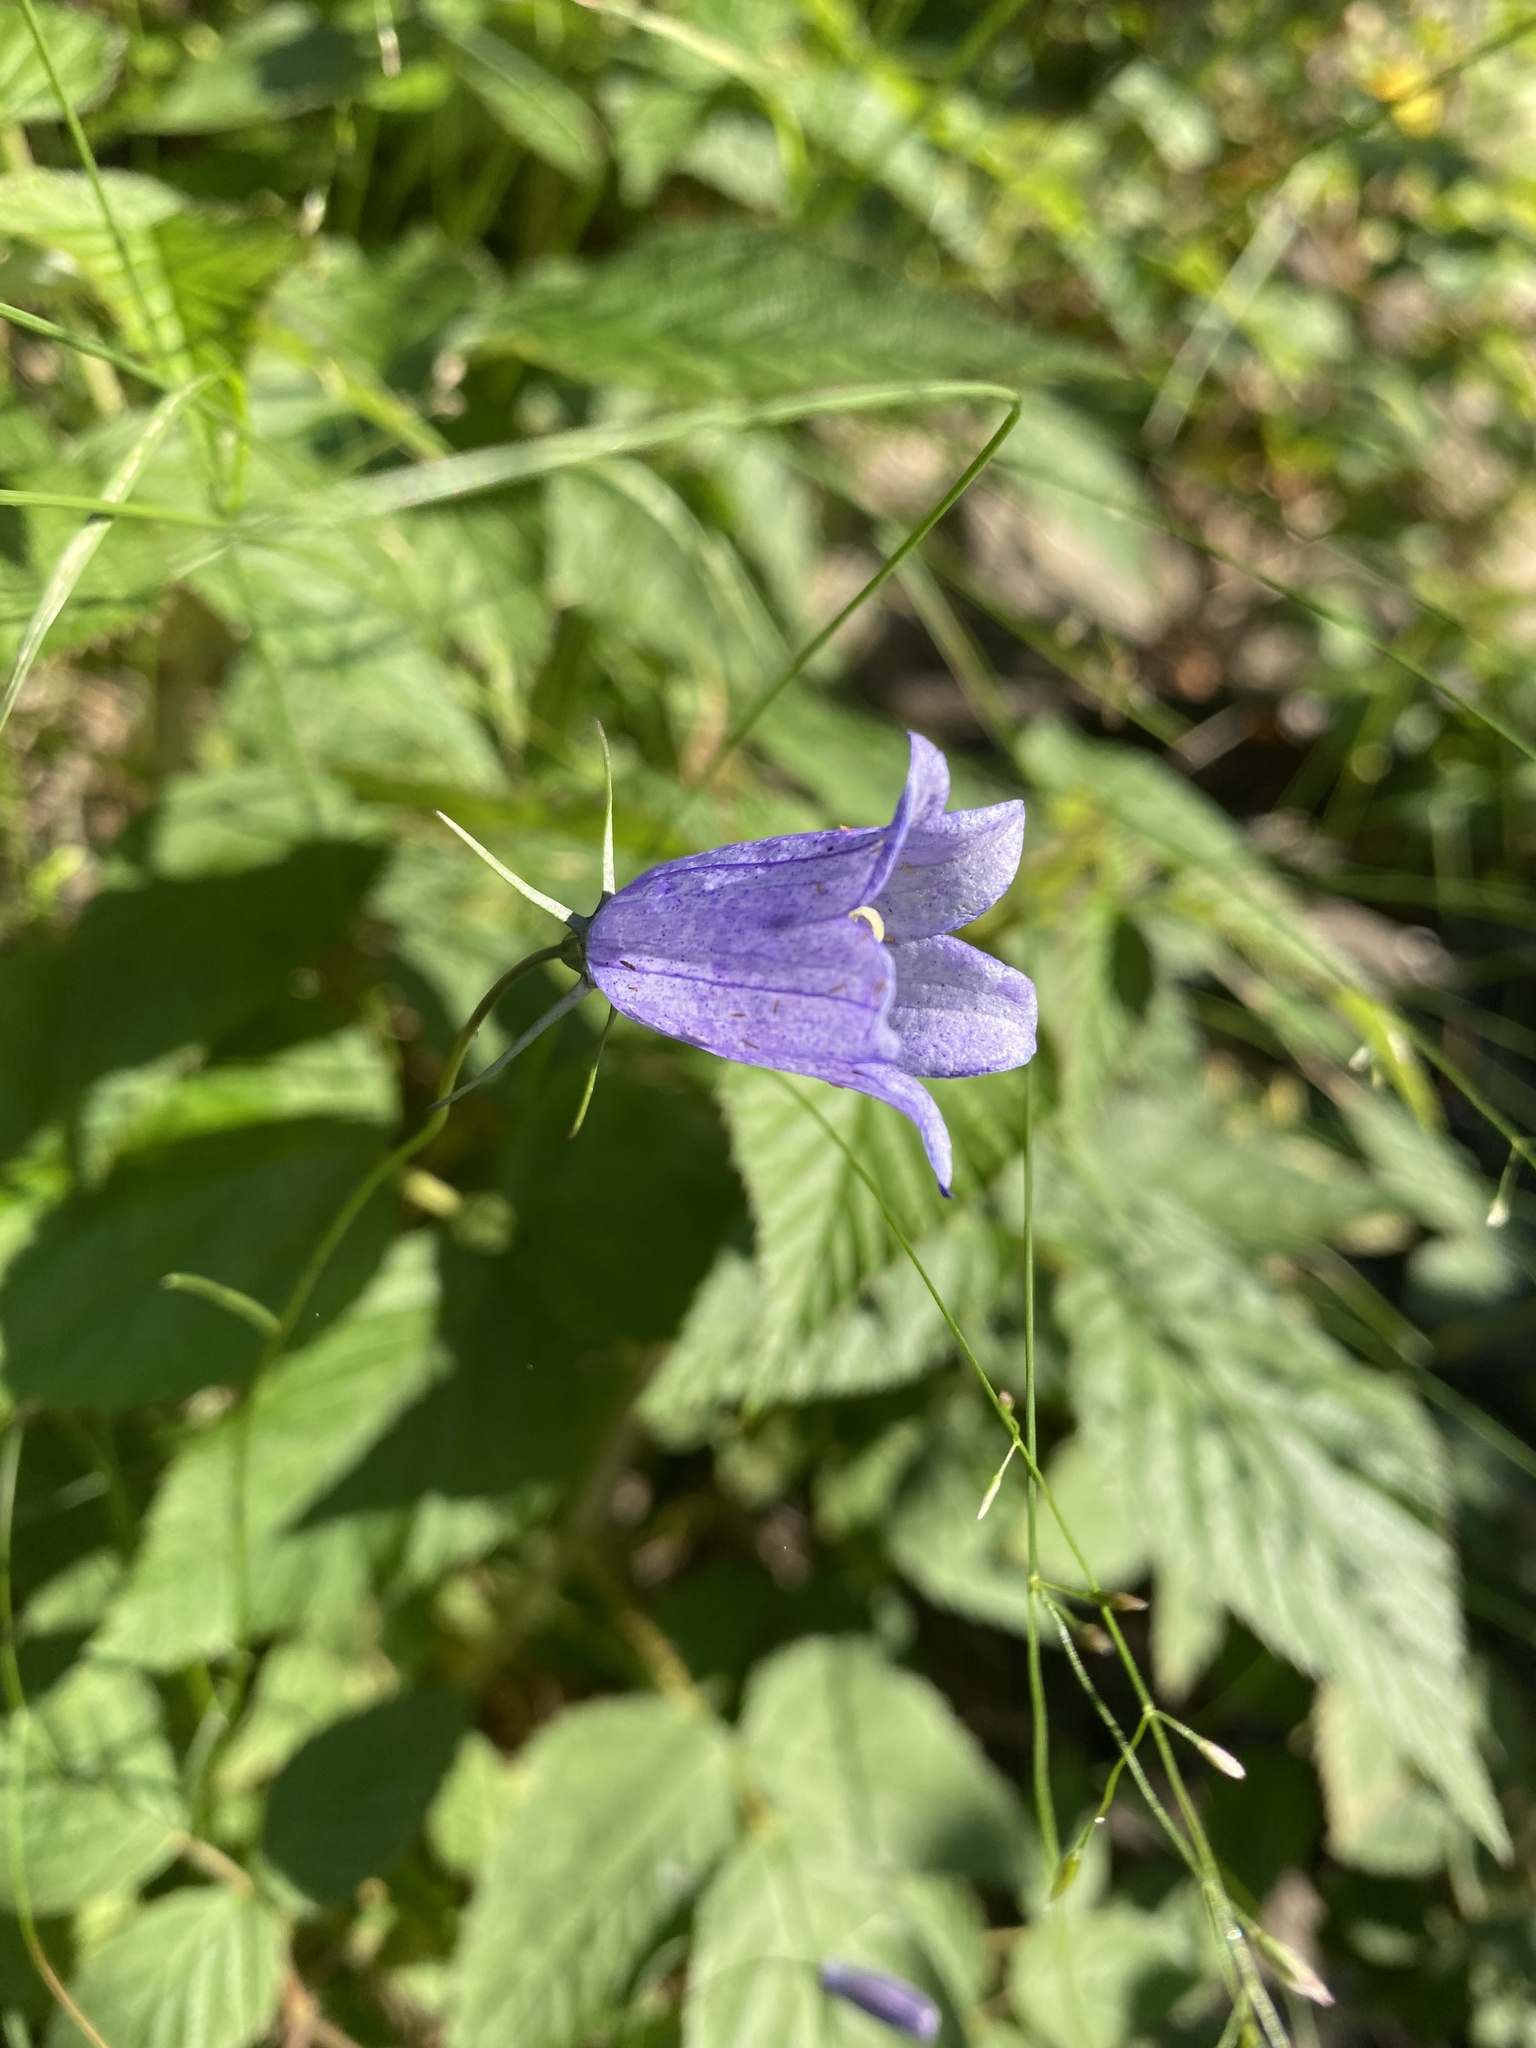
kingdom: Plantae
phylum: Tracheophyta
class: Magnoliopsida
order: Asterales
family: Campanulaceae
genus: Campanula
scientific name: Campanula rotundifolia
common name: Harebell
